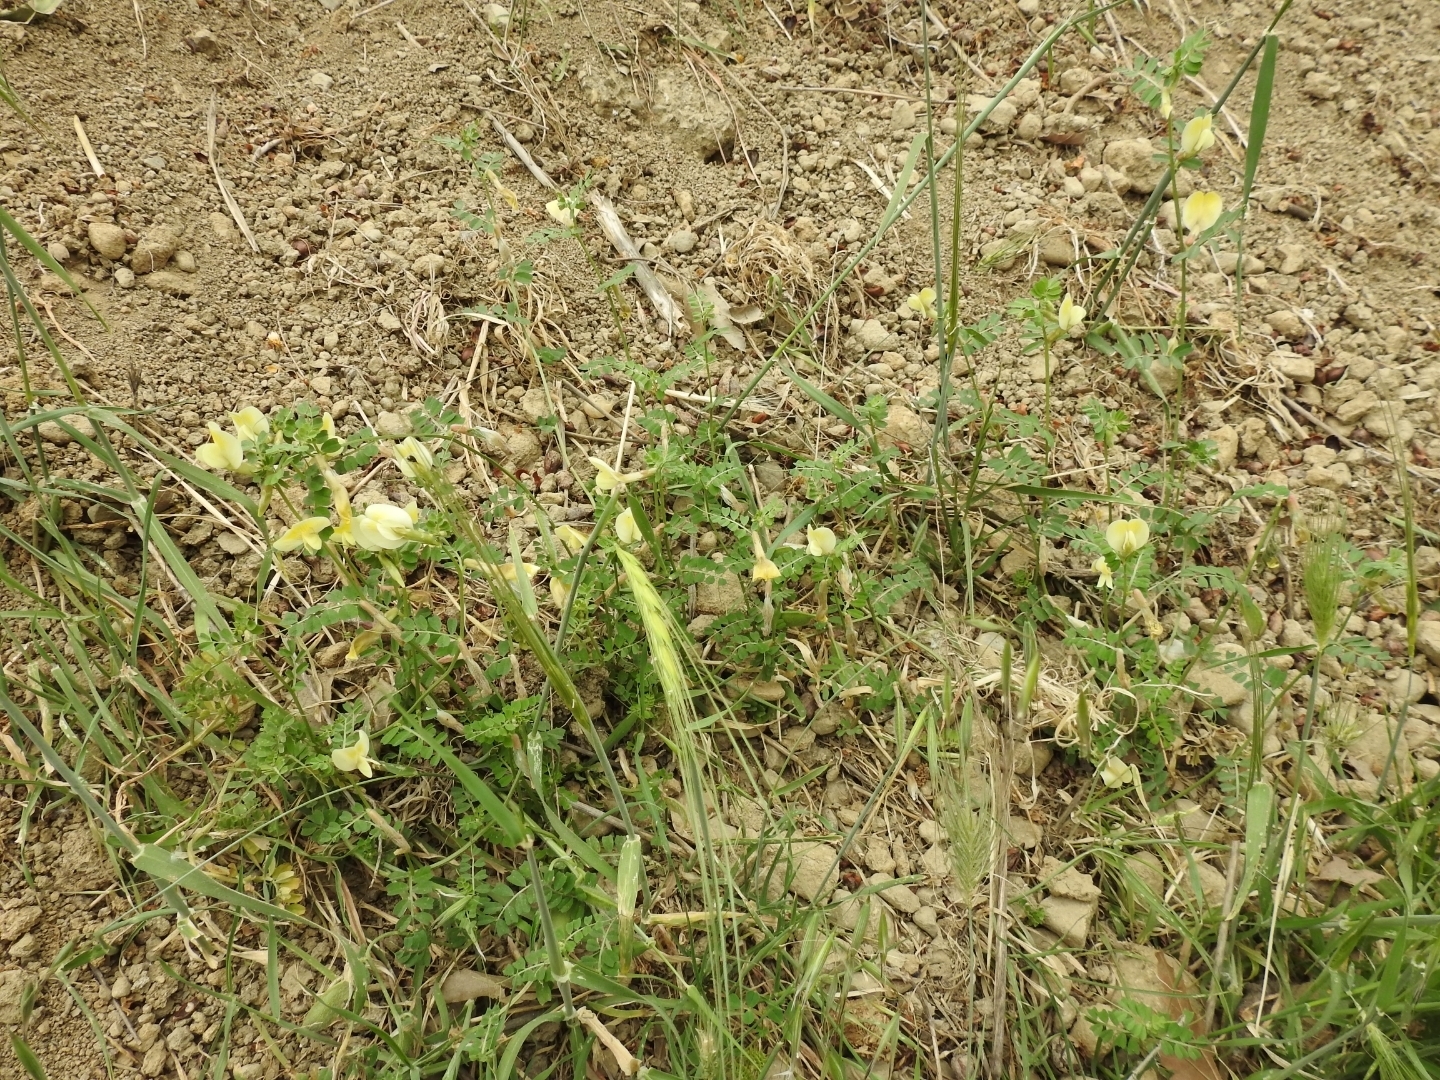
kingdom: Plantae
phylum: Tracheophyta
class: Magnoliopsida
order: Fabales
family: Fabaceae
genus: Vicia
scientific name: Vicia hybrida
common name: Hairy yellow vetch
